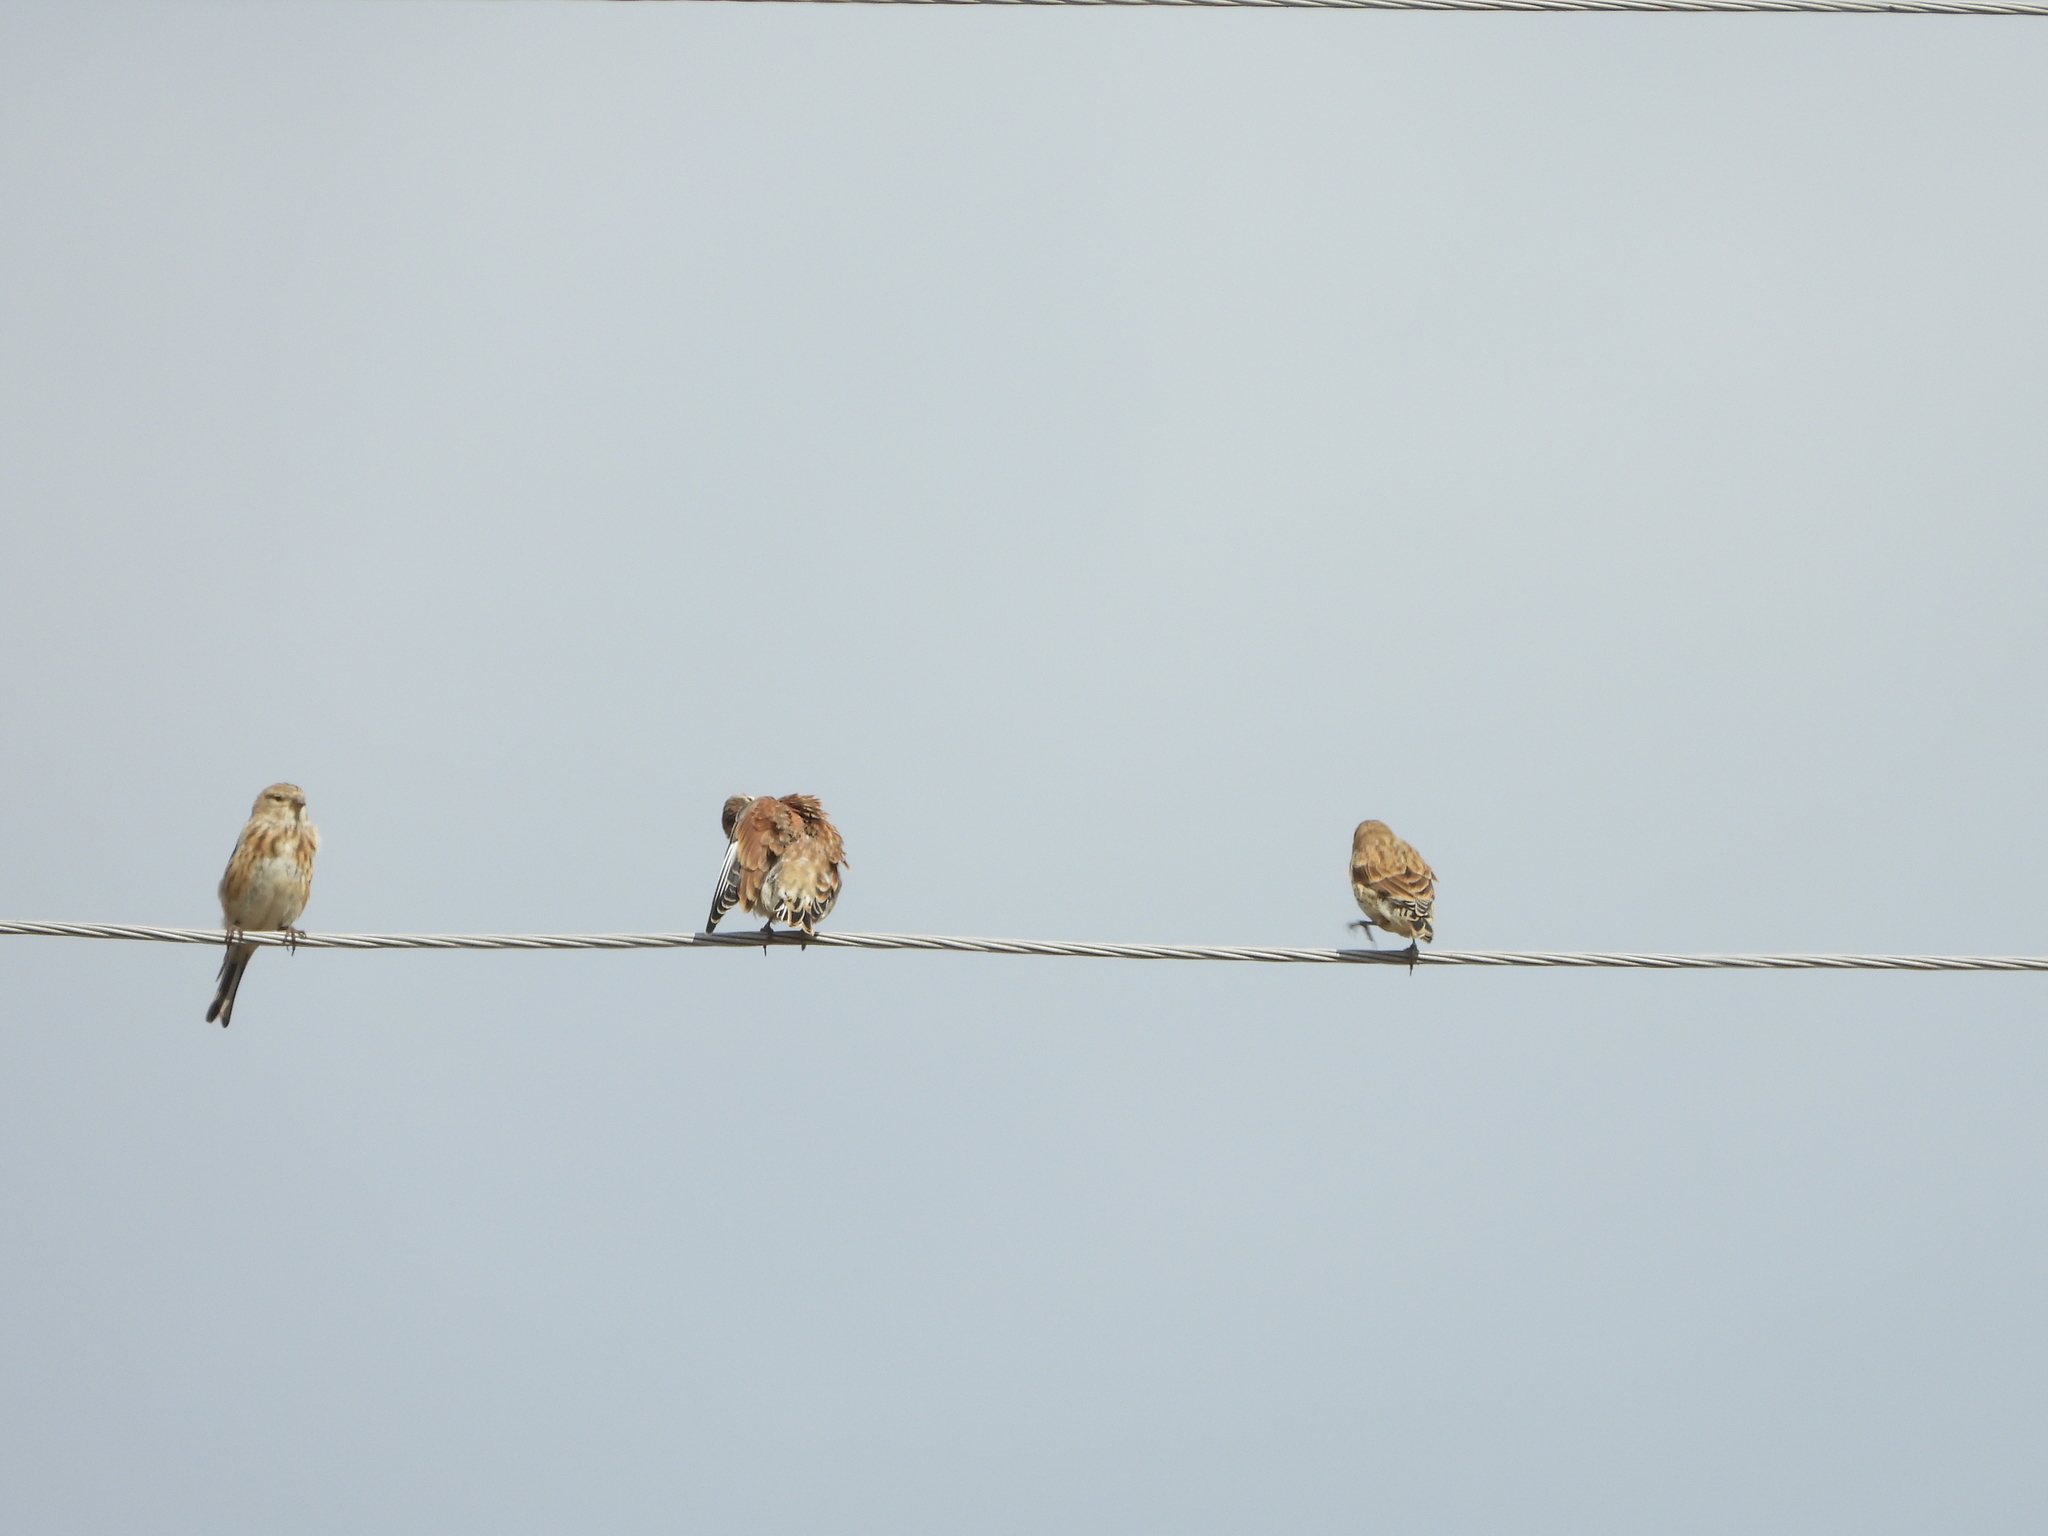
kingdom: Animalia
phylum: Chordata
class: Aves
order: Passeriformes
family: Fringillidae
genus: Linaria
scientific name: Linaria cannabina
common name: Common linnet
